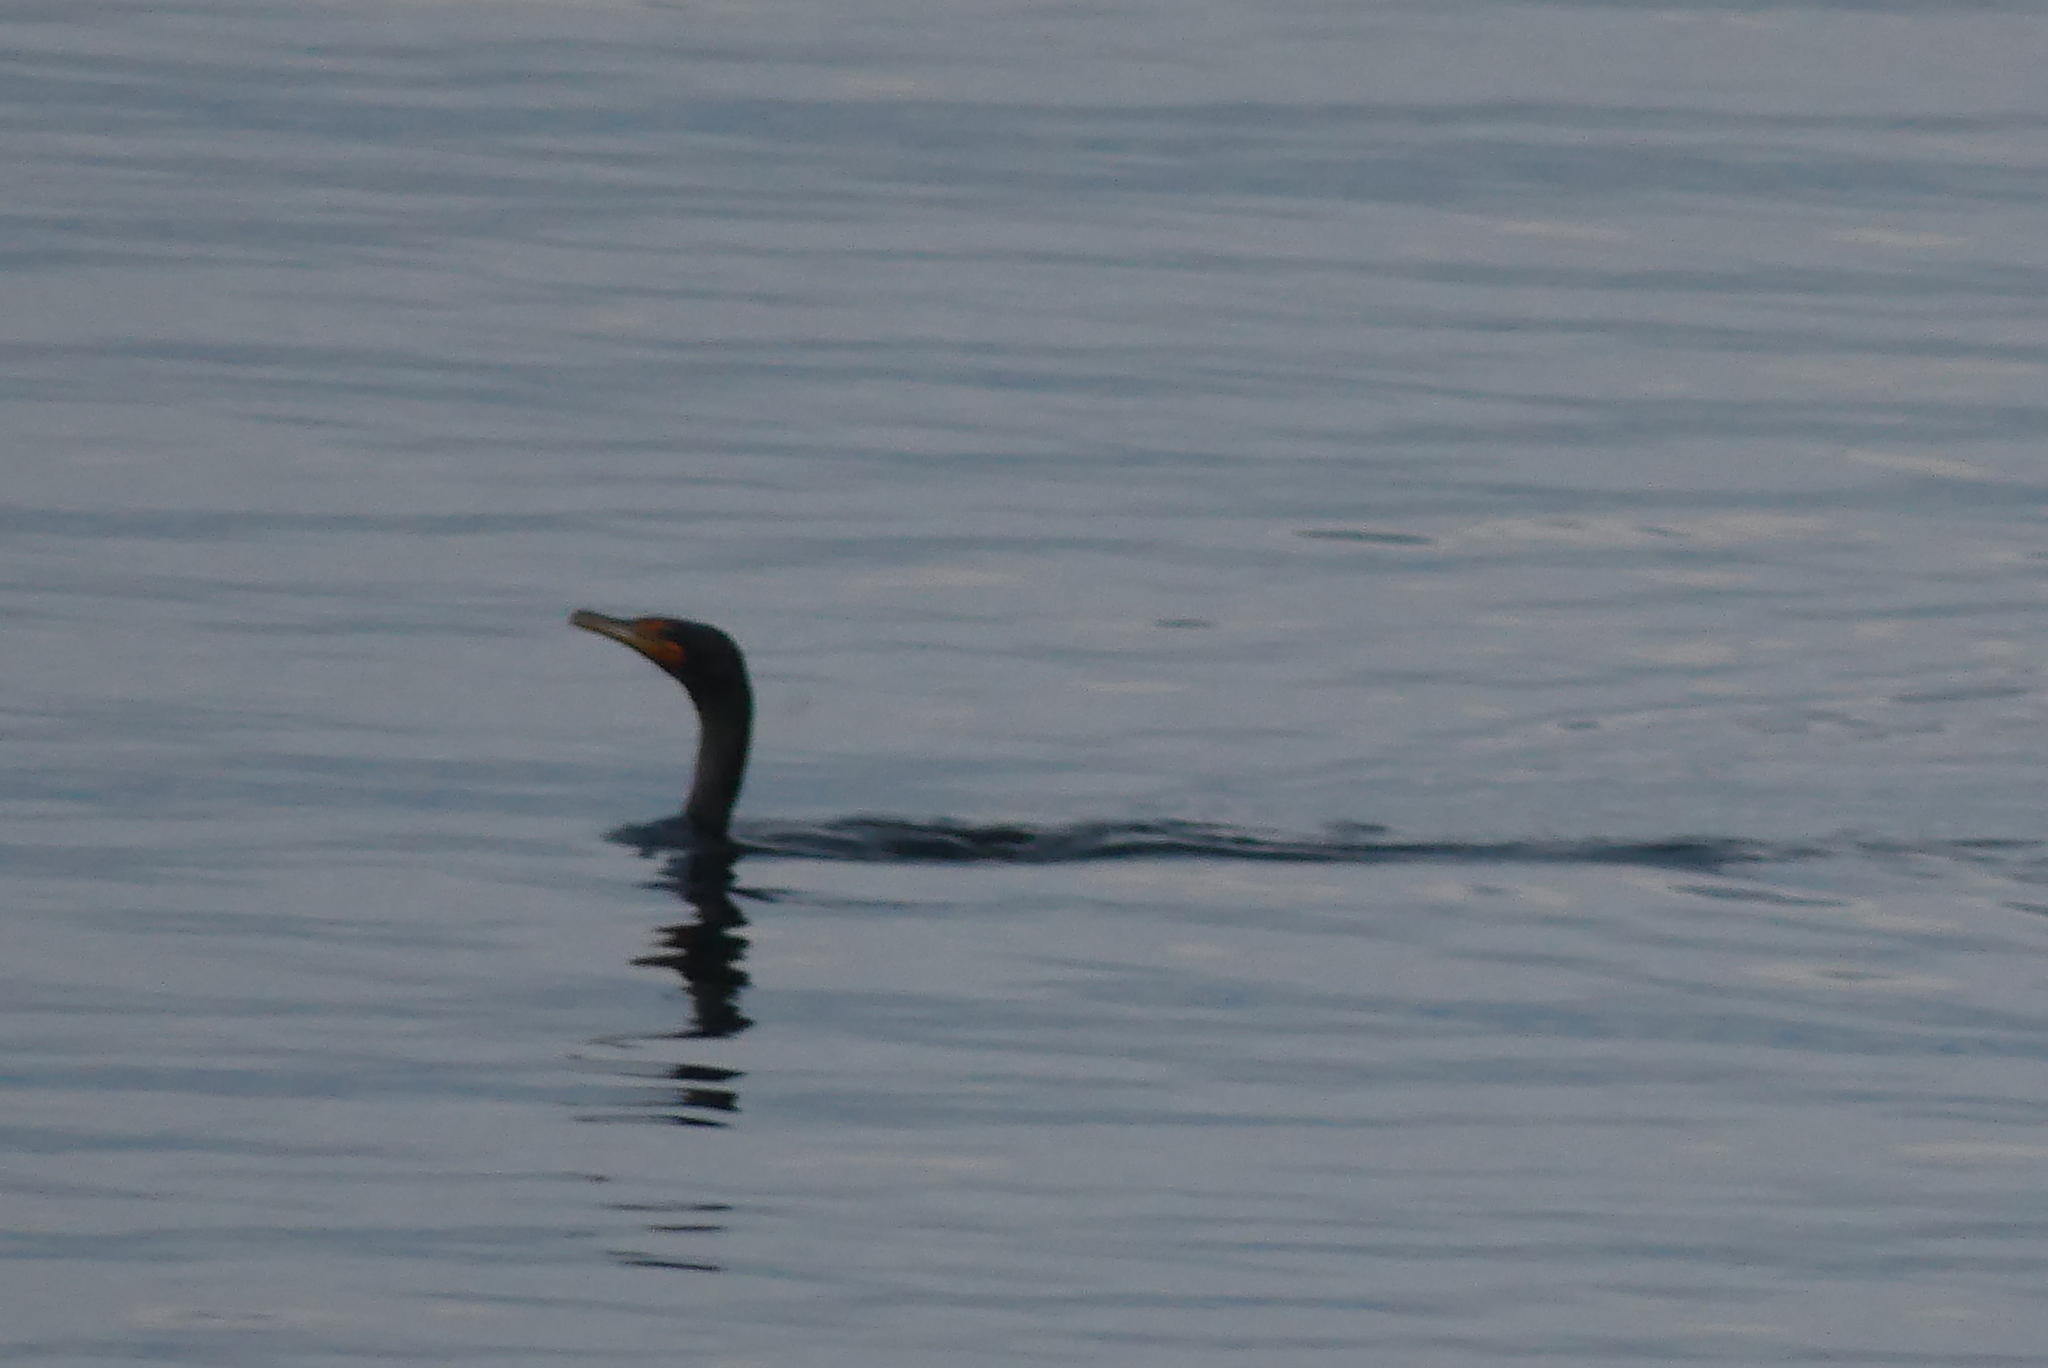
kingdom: Animalia
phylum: Chordata
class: Aves
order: Suliformes
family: Phalacrocoracidae
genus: Phalacrocorax
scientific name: Phalacrocorax auritus
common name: Double-crested cormorant
